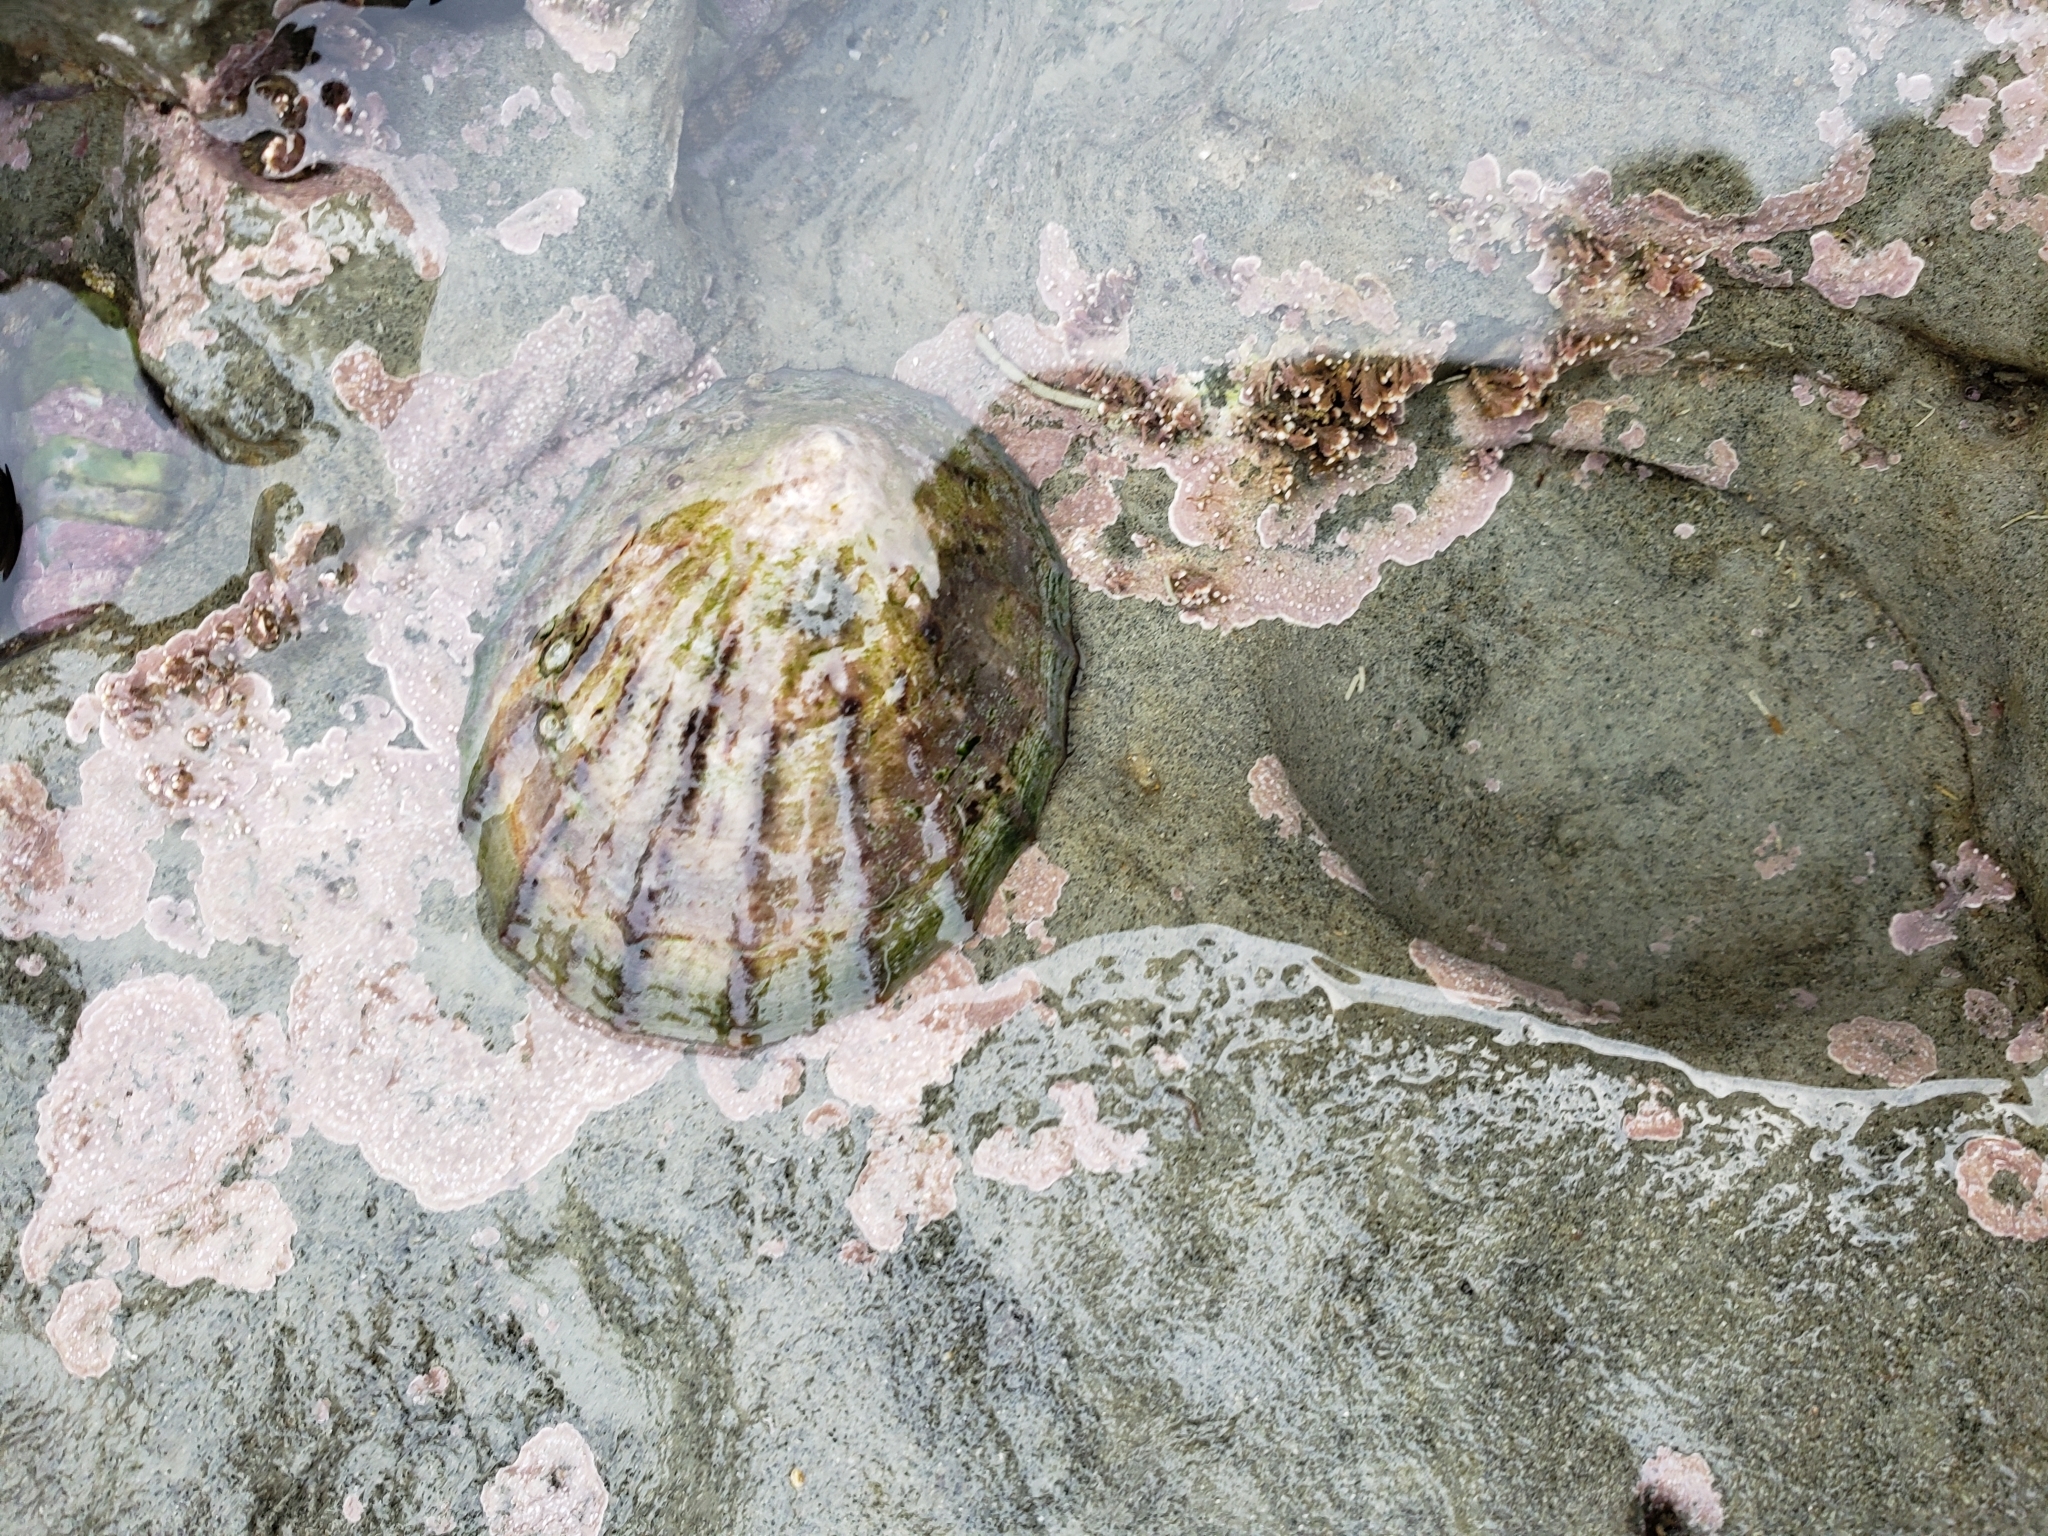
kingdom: Animalia
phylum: Mollusca
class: Gastropoda
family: Nacellidae
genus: Cellana
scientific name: Cellana radians
